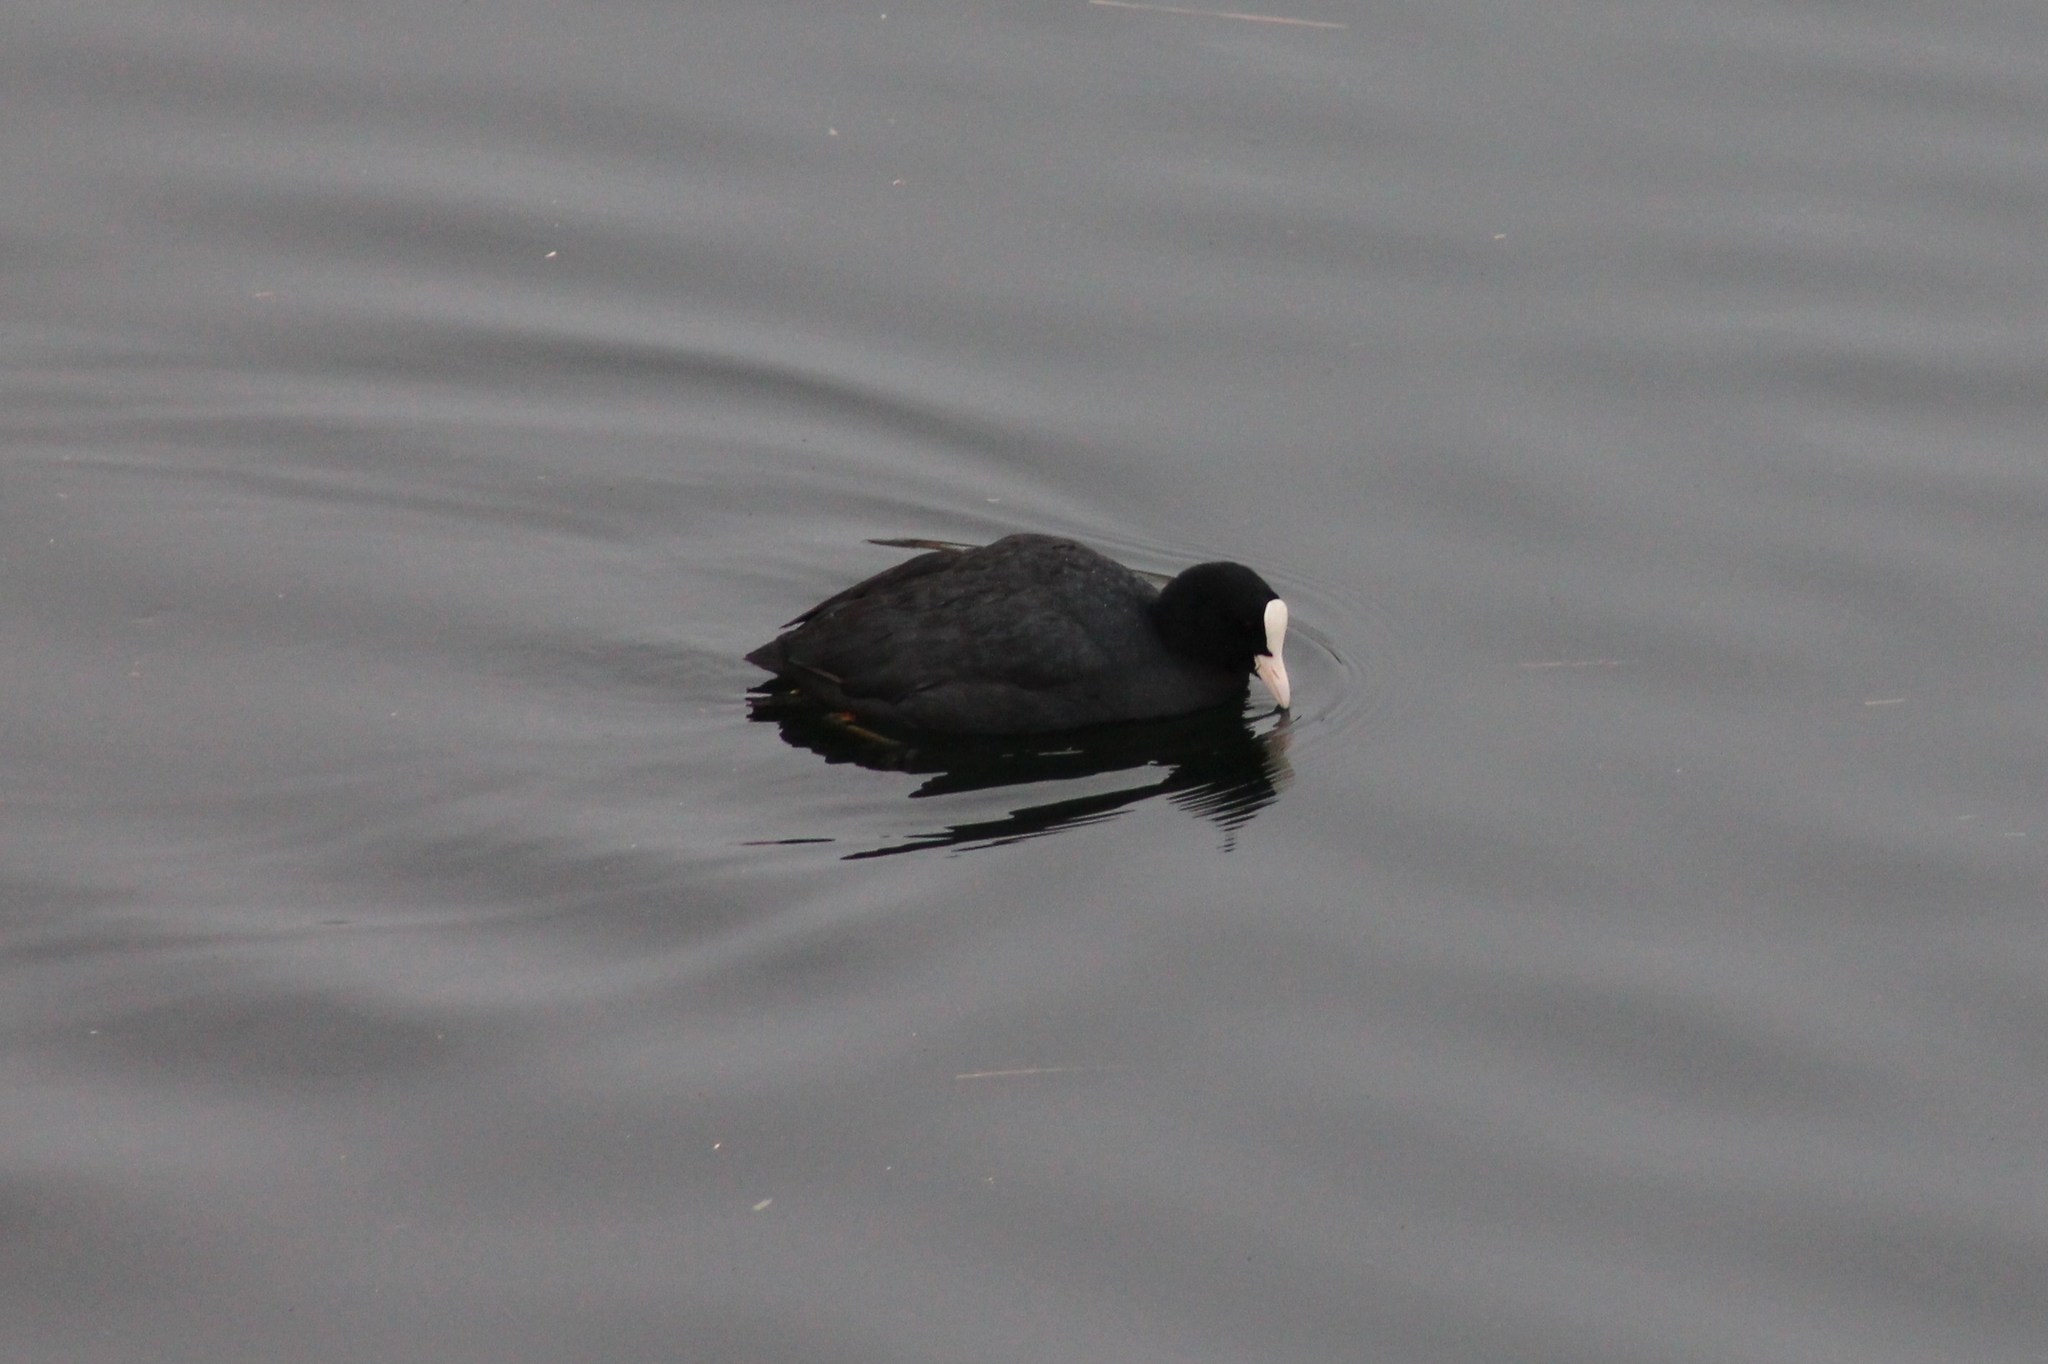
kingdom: Animalia
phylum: Chordata
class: Aves
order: Gruiformes
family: Rallidae
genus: Fulica
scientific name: Fulica atra
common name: Eurasian coot
